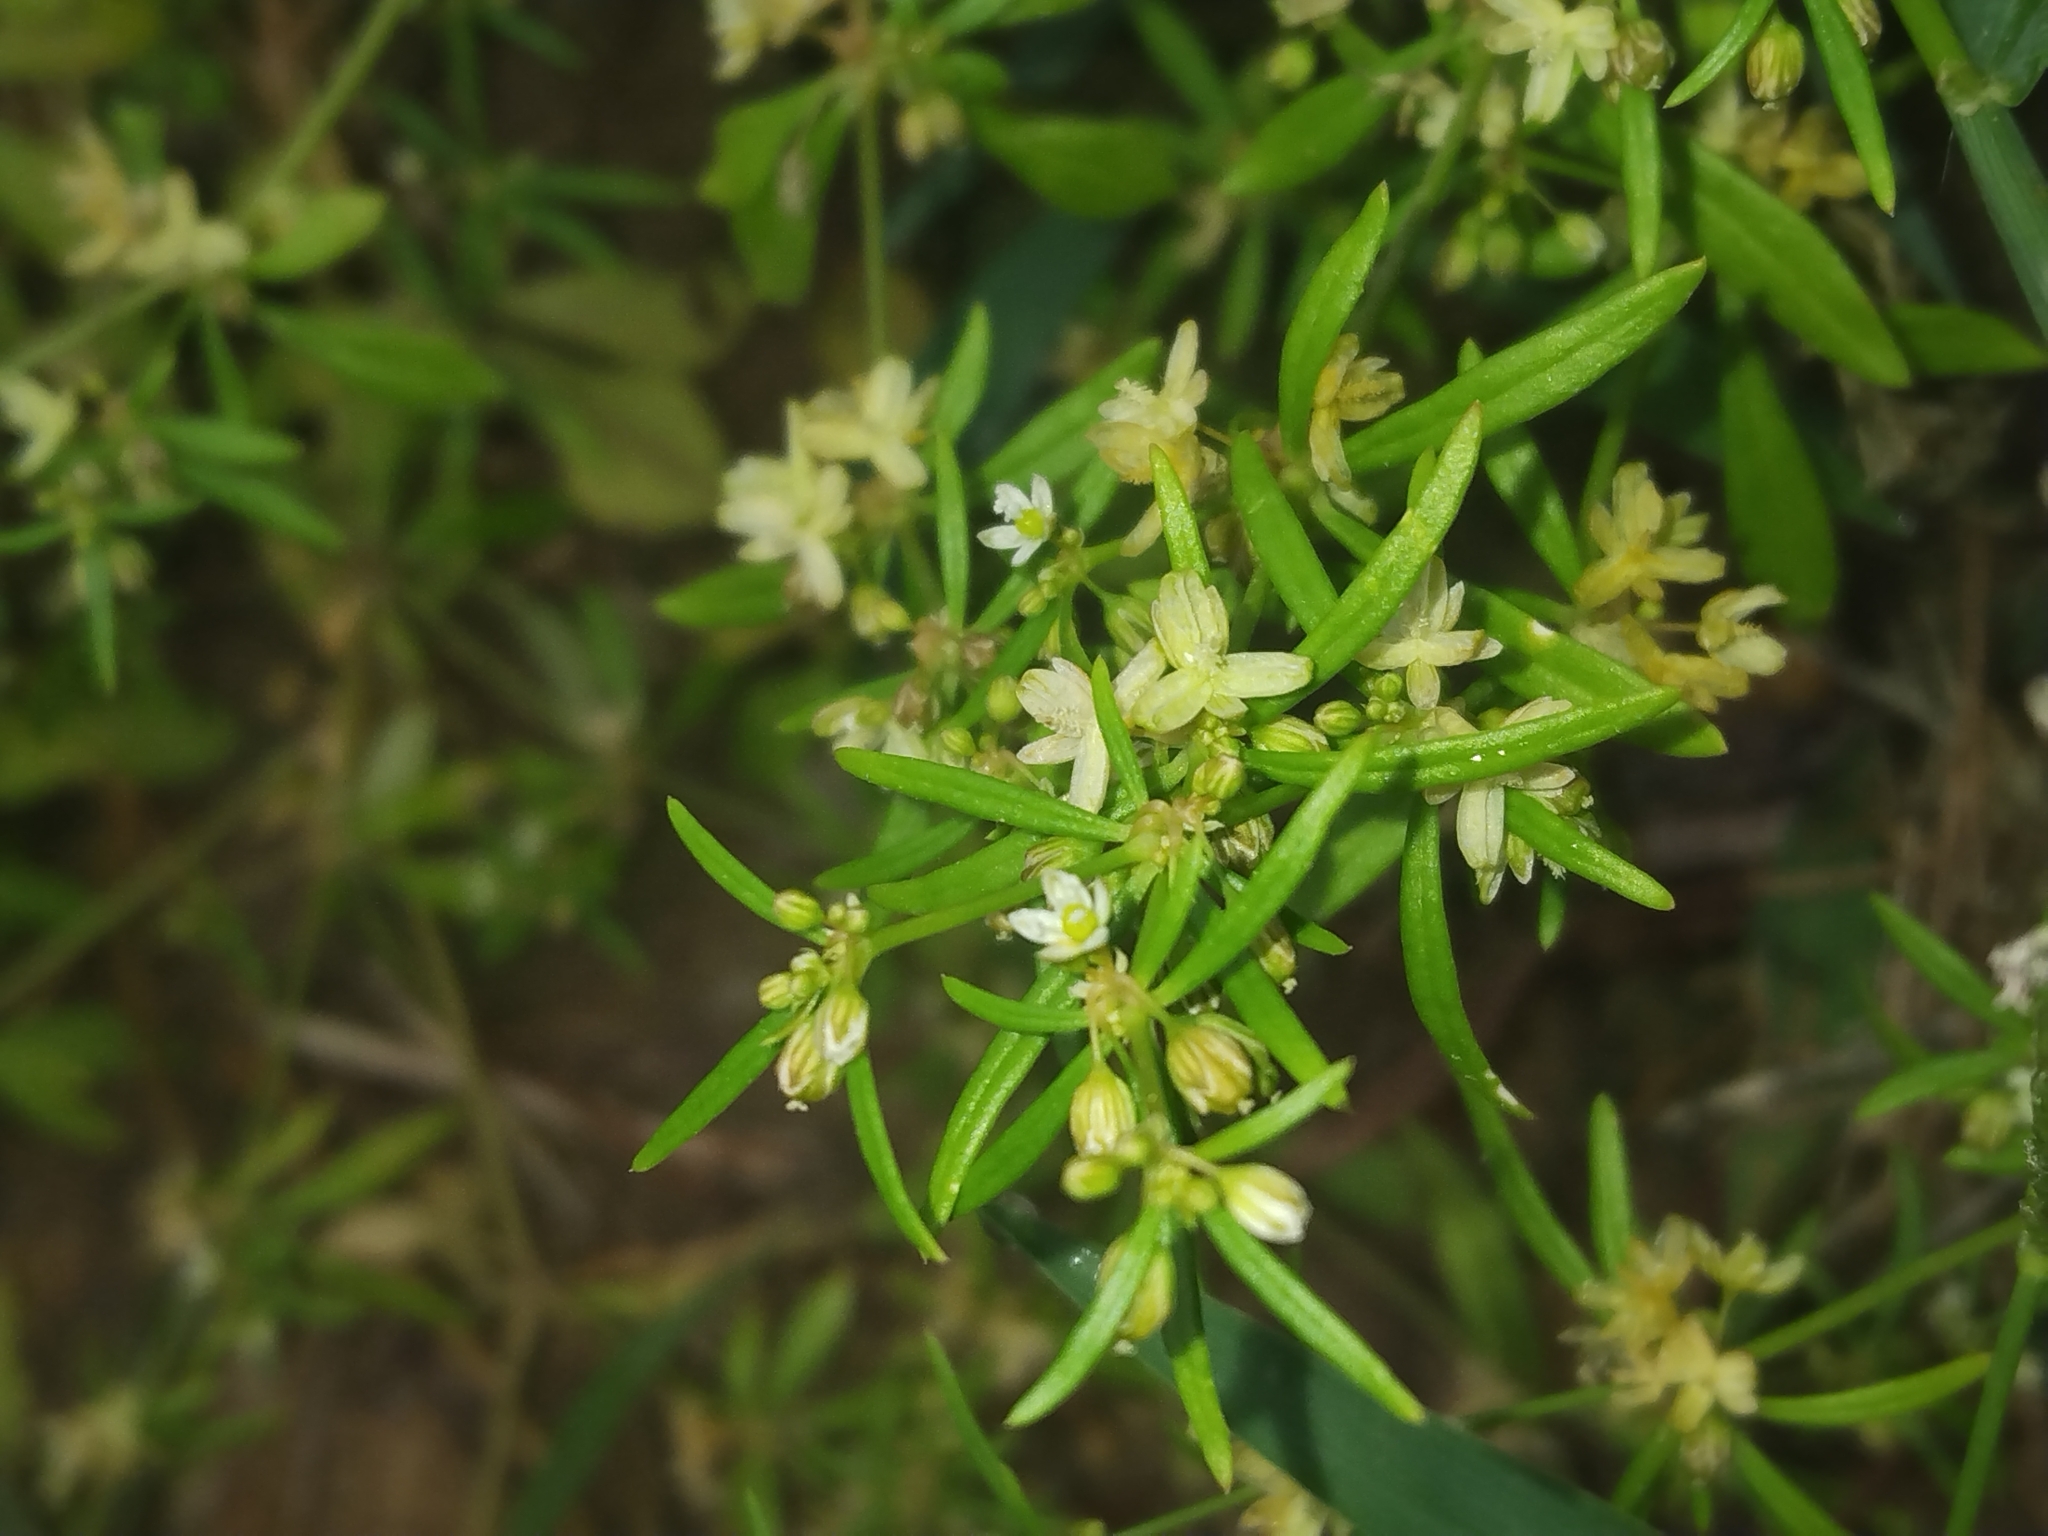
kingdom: Plantae
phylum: Tracheophyta
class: Magnoliopsida
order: Caryophyllales
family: Molluginaceae
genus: Mollugo
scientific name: Mollugo verticillata
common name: Green carpetweed
